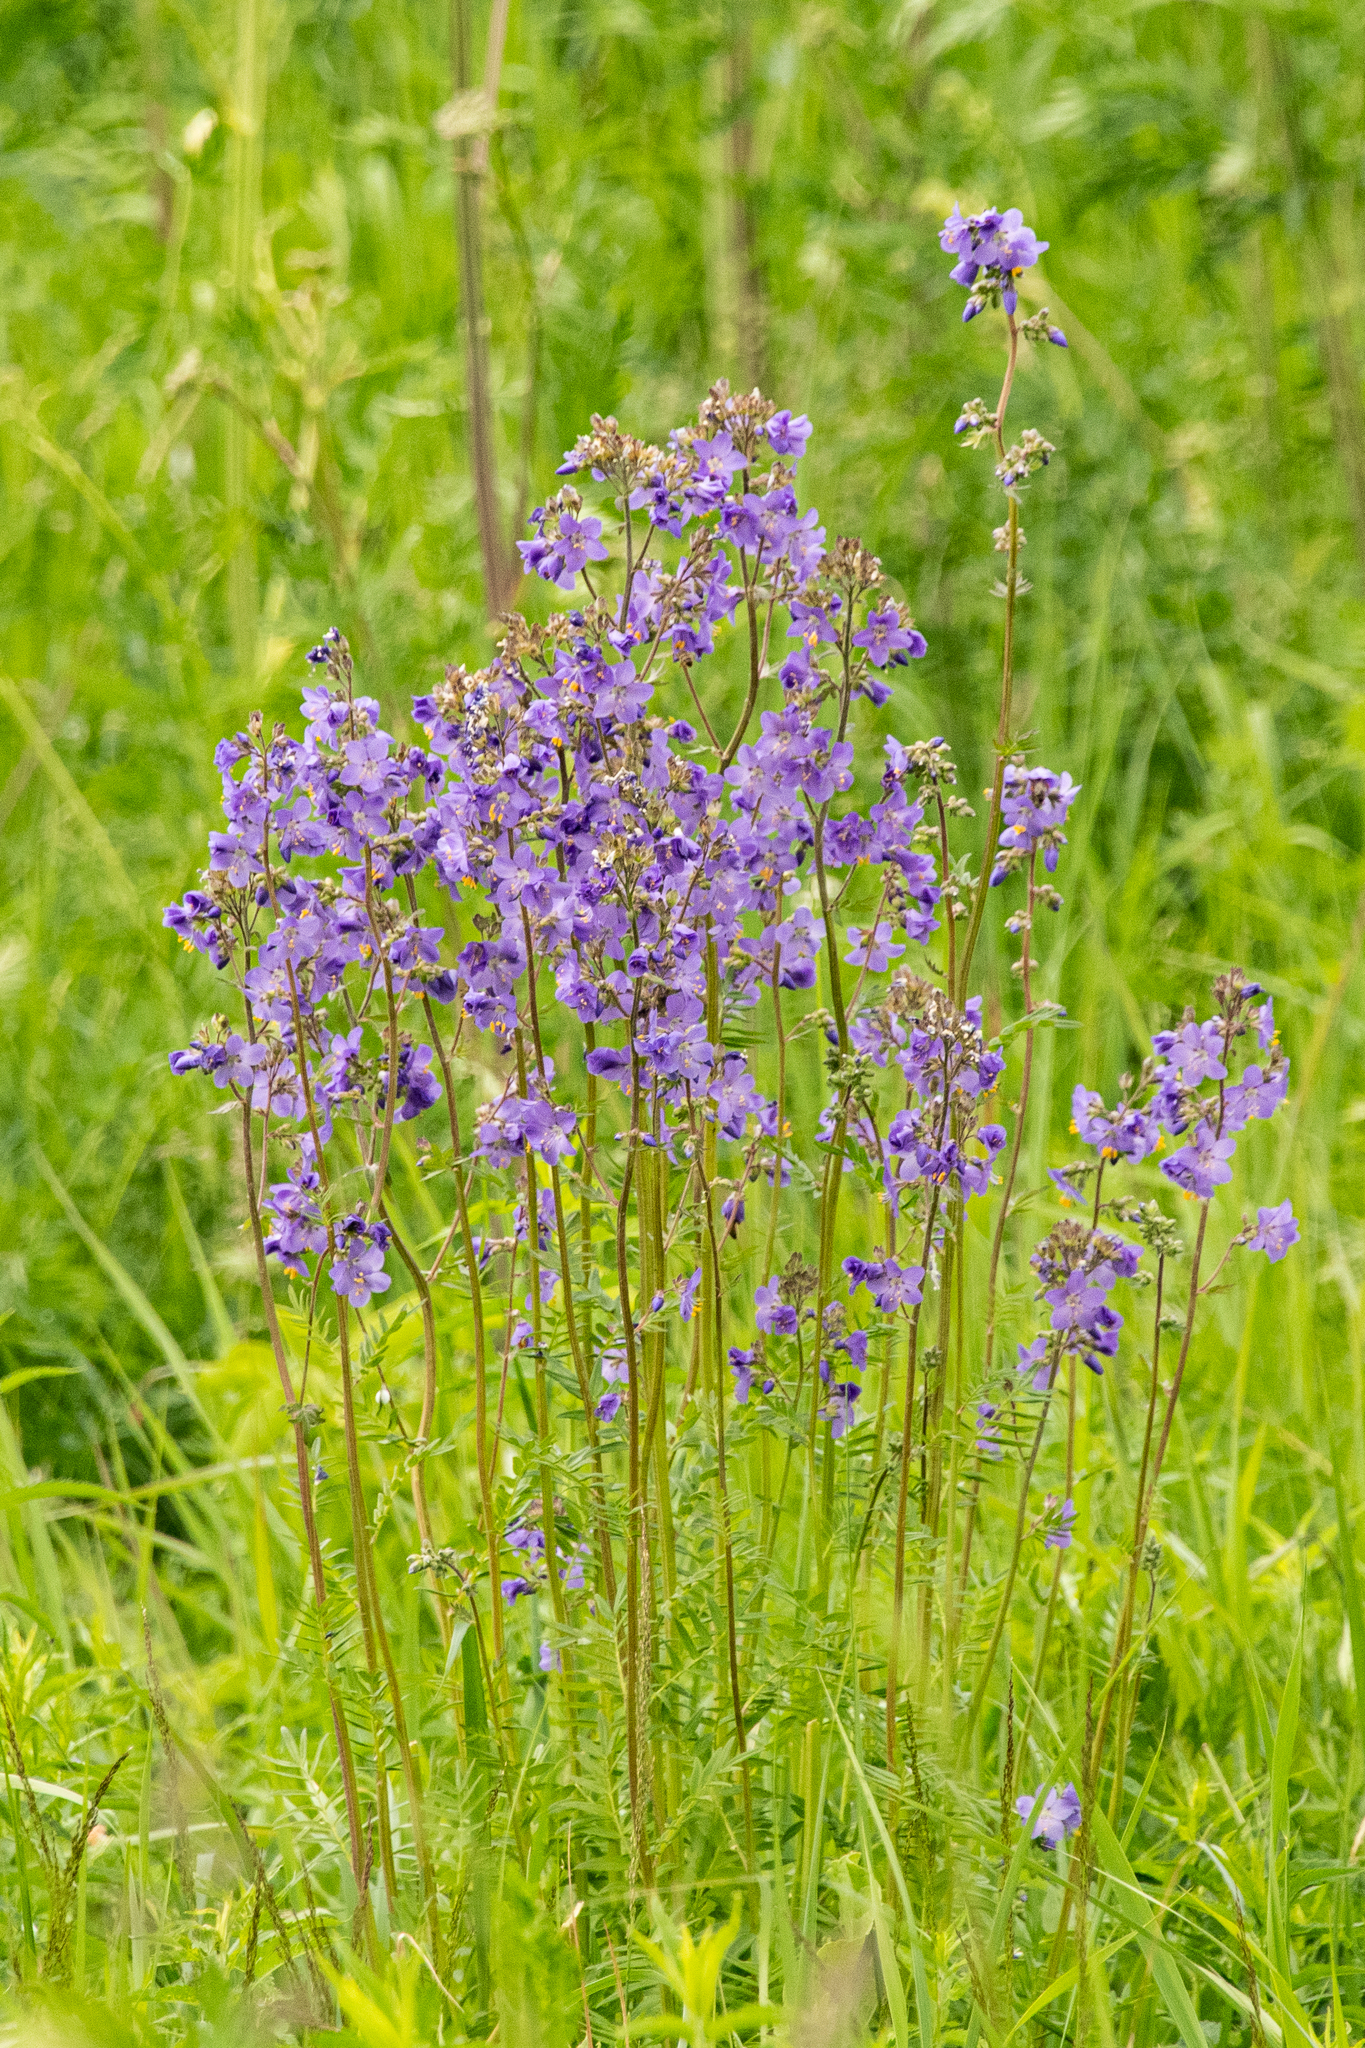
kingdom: Plantae
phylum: Tracheophyta
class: Magnoliopsida
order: Ericales
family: Polemoniaceae
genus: Polemonium
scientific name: Polemonium caeruleum
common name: Jacob's-ladder
